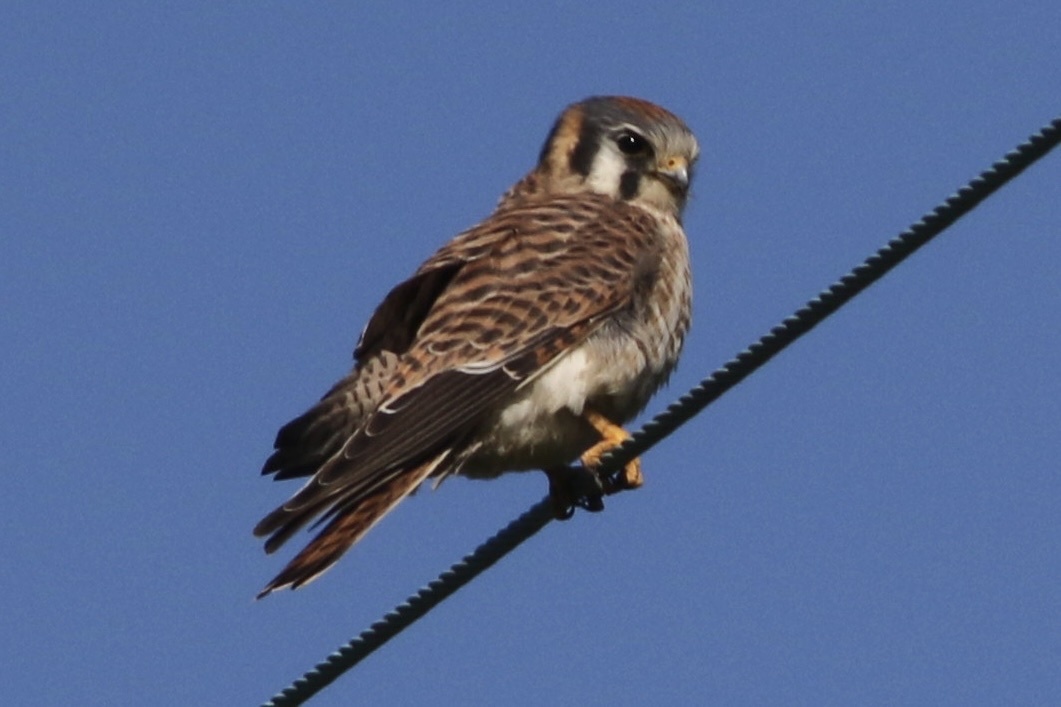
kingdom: Animalia
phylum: Chordata
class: Aves
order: Falconiformes
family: Falconidae
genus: Falco
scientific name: Falco sparverius
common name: American kestrel
